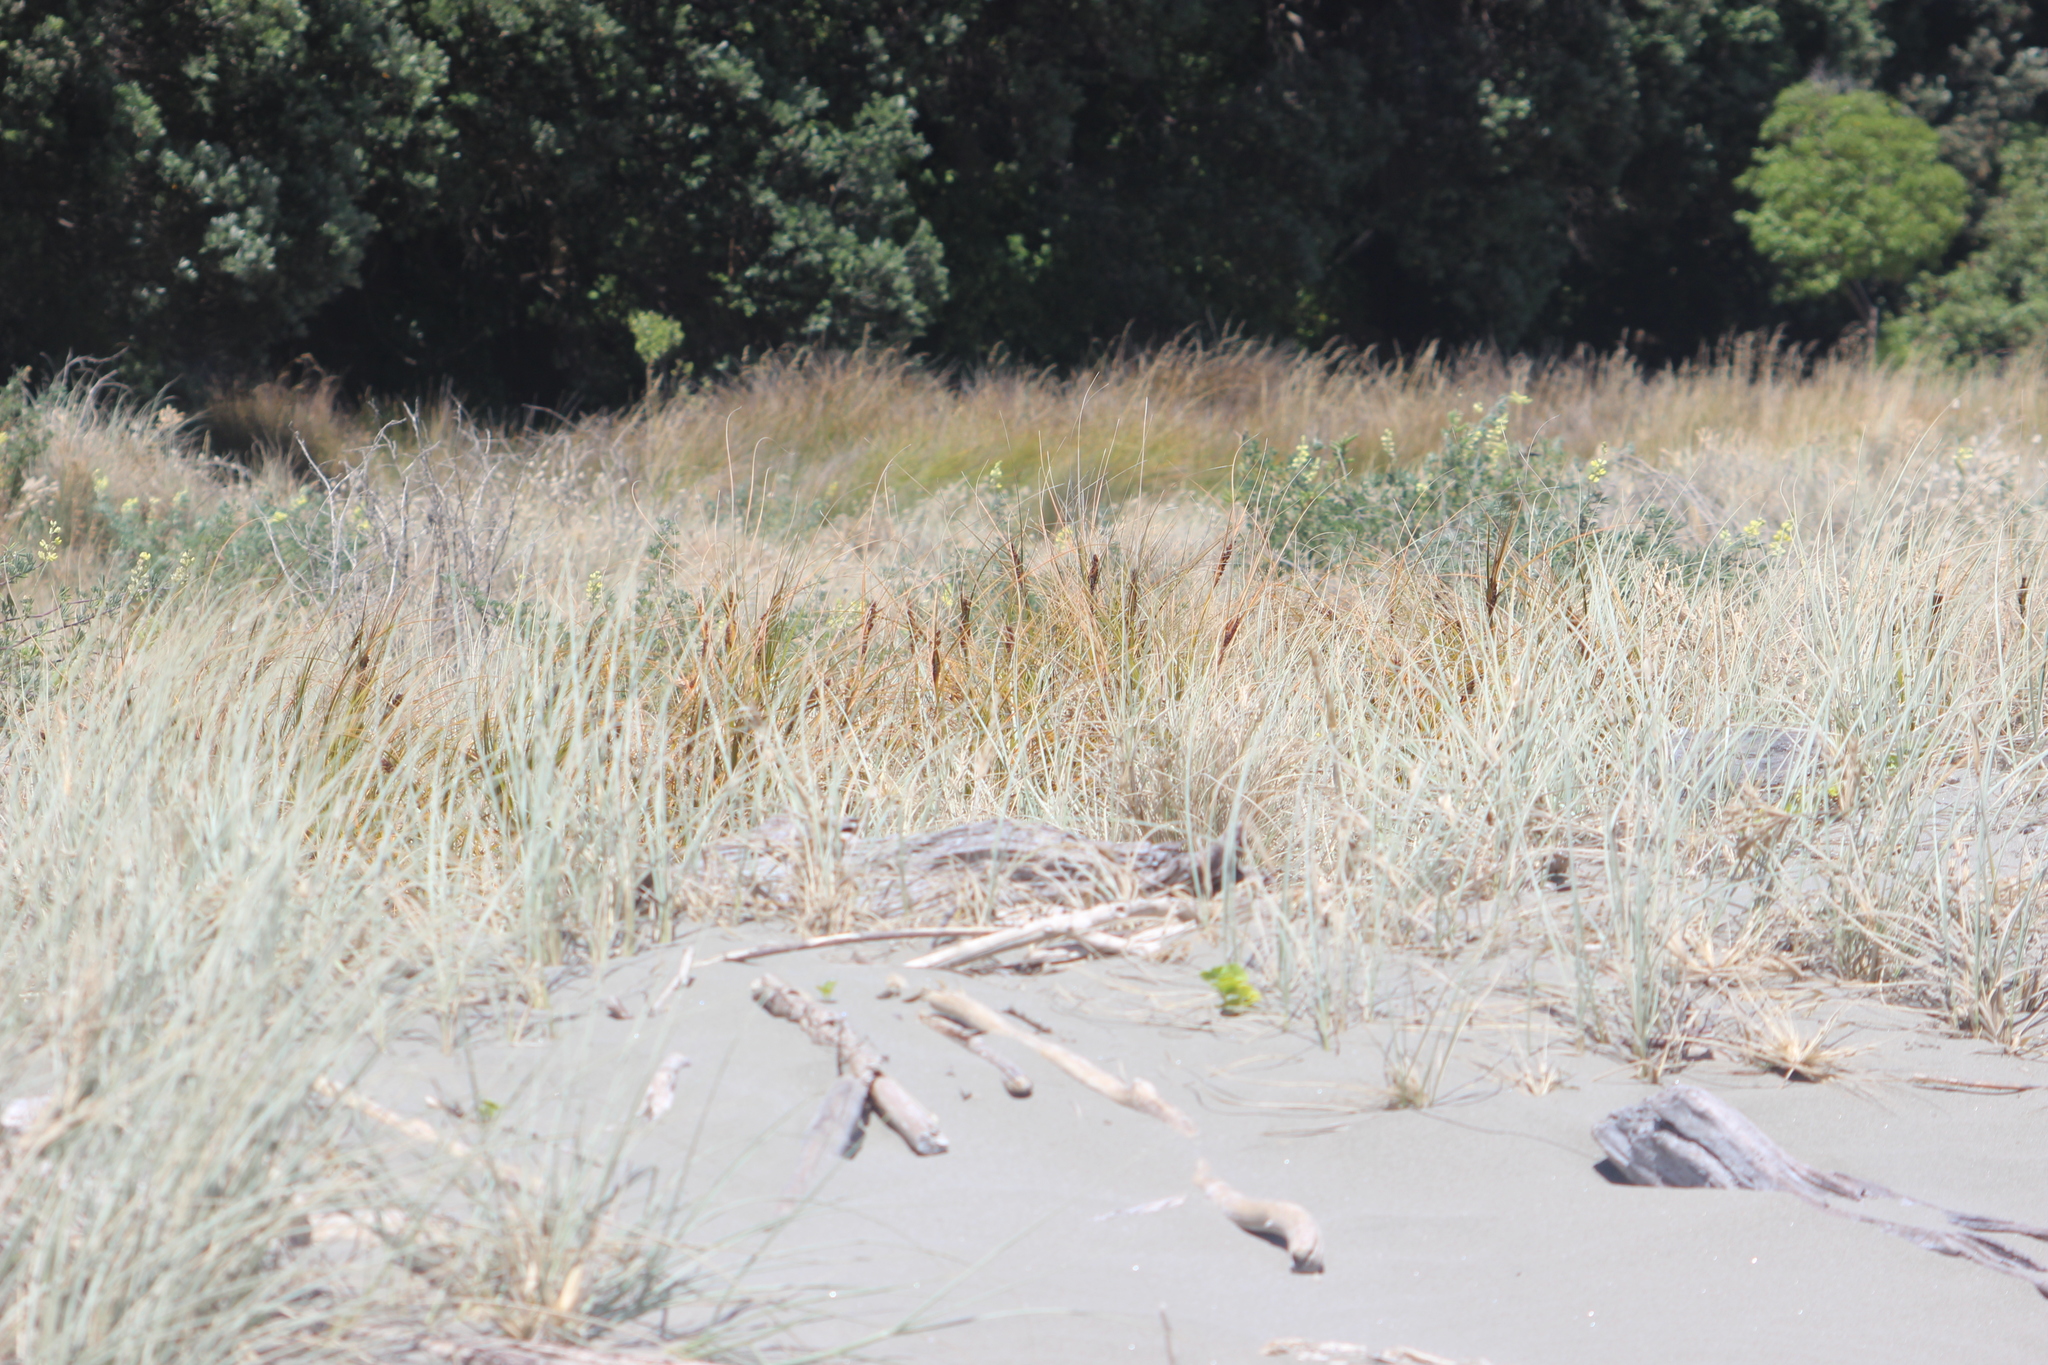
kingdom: Plantae
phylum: Tracheophyta
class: Liliopsida
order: Poales
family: Cyperaceae
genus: Ficinia
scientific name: Ficinia spiralis
